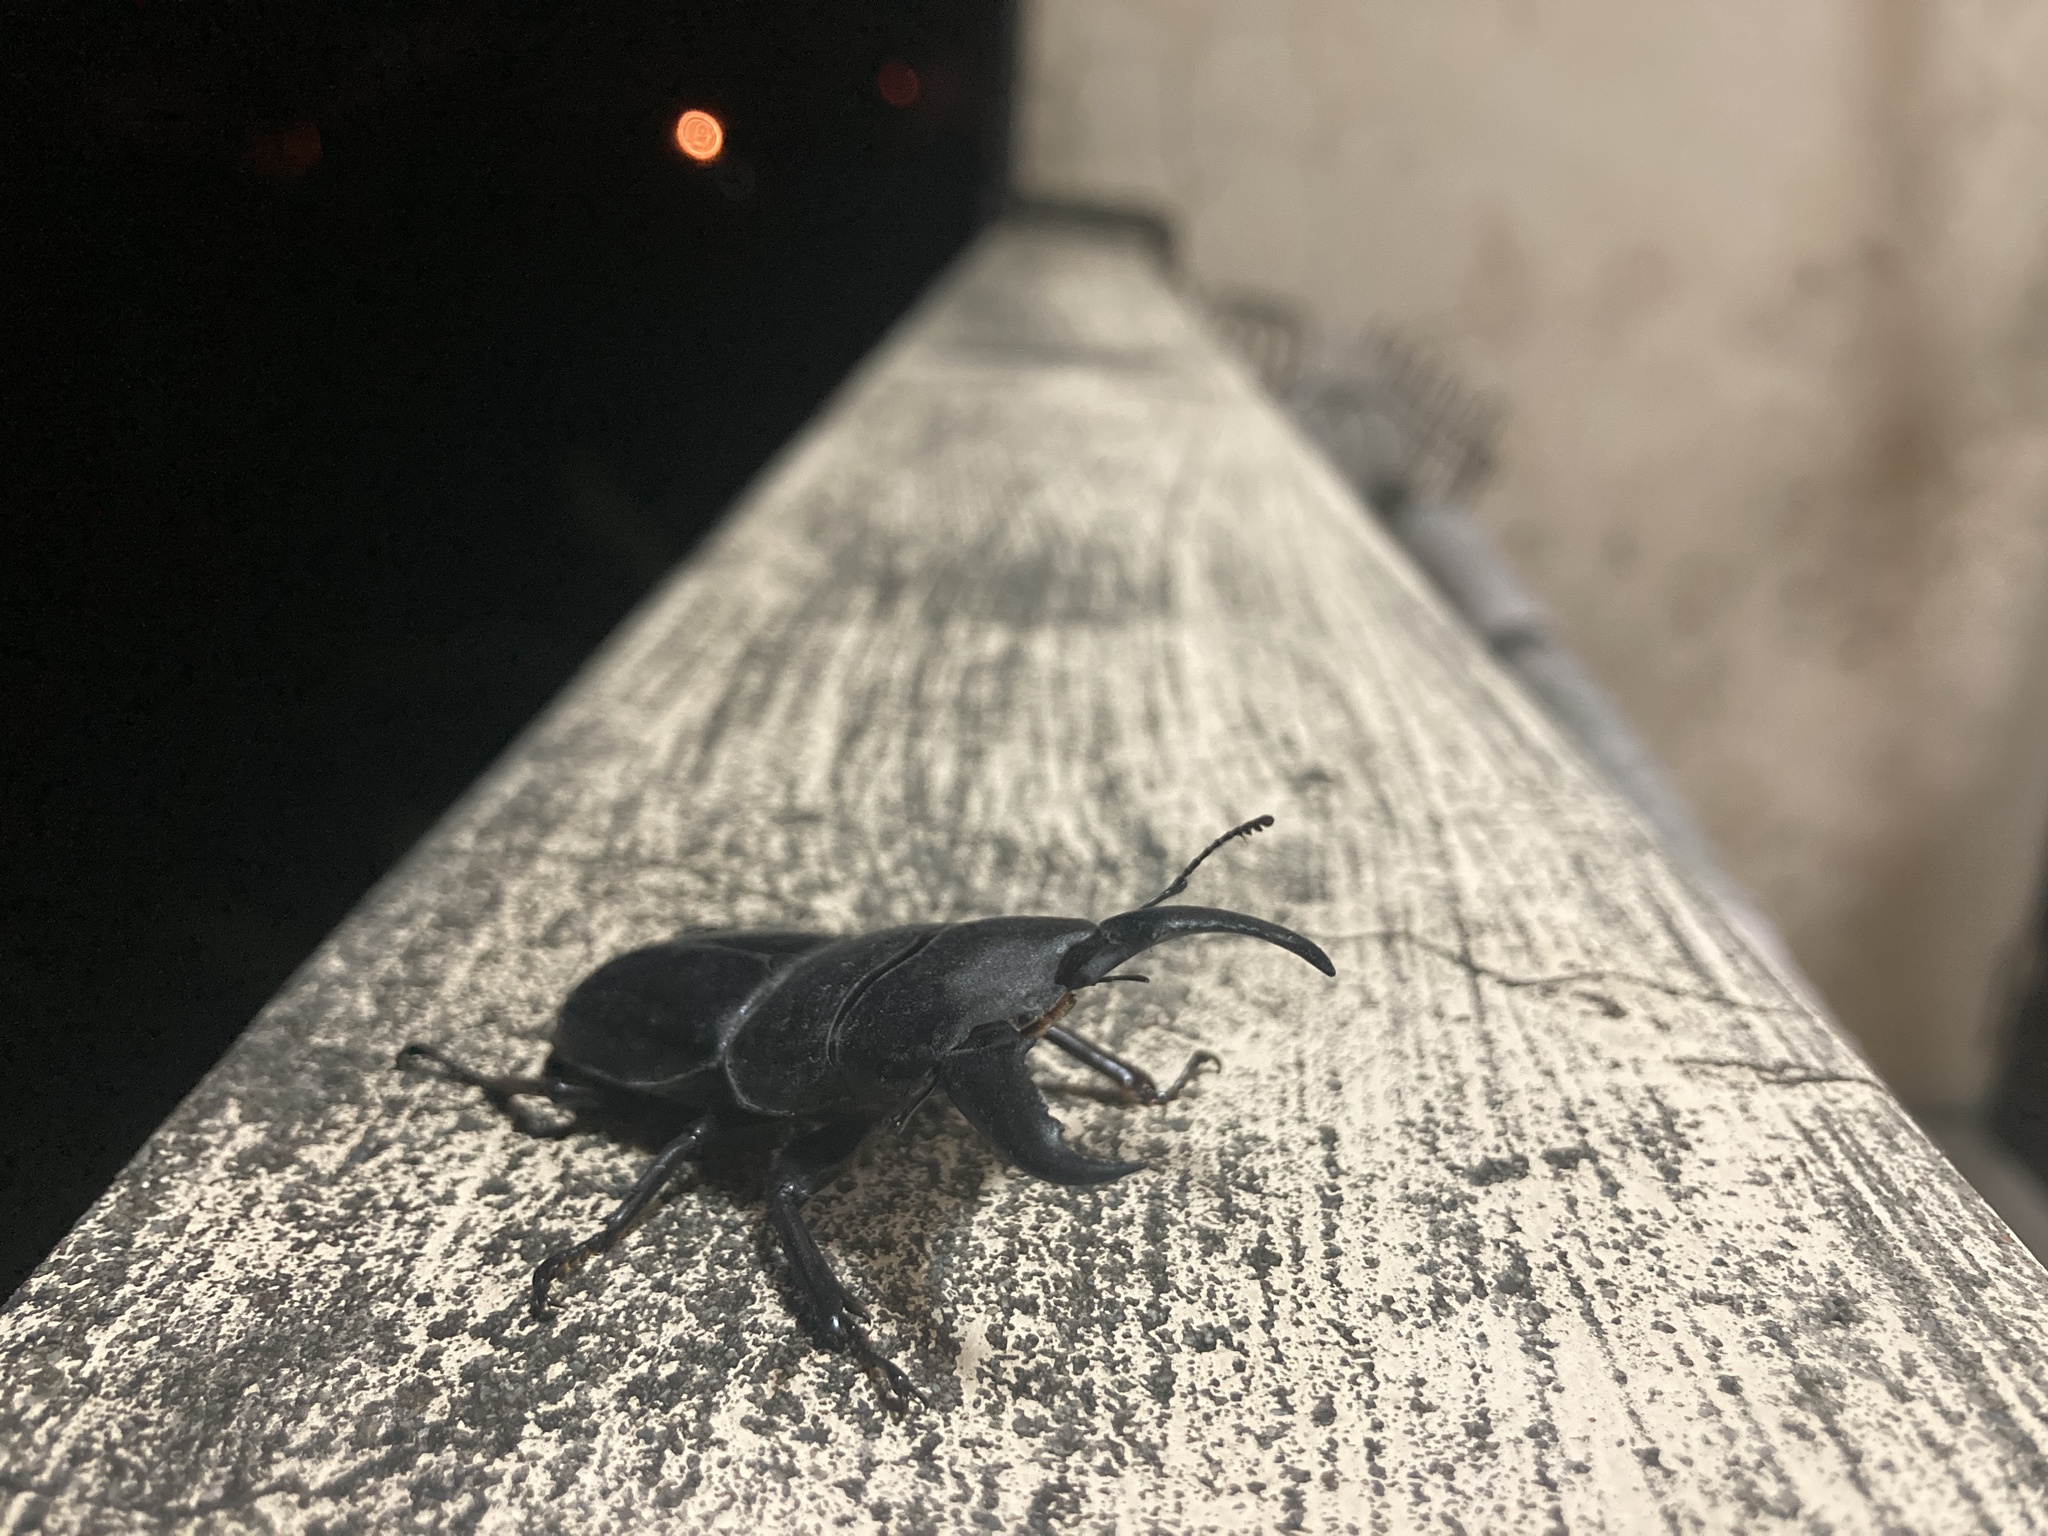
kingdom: Animalia
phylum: Arthropoda
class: Insecta
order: Coleoptera
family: Lucanidae
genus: Serrognathus
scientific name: Serrognathus titanus
